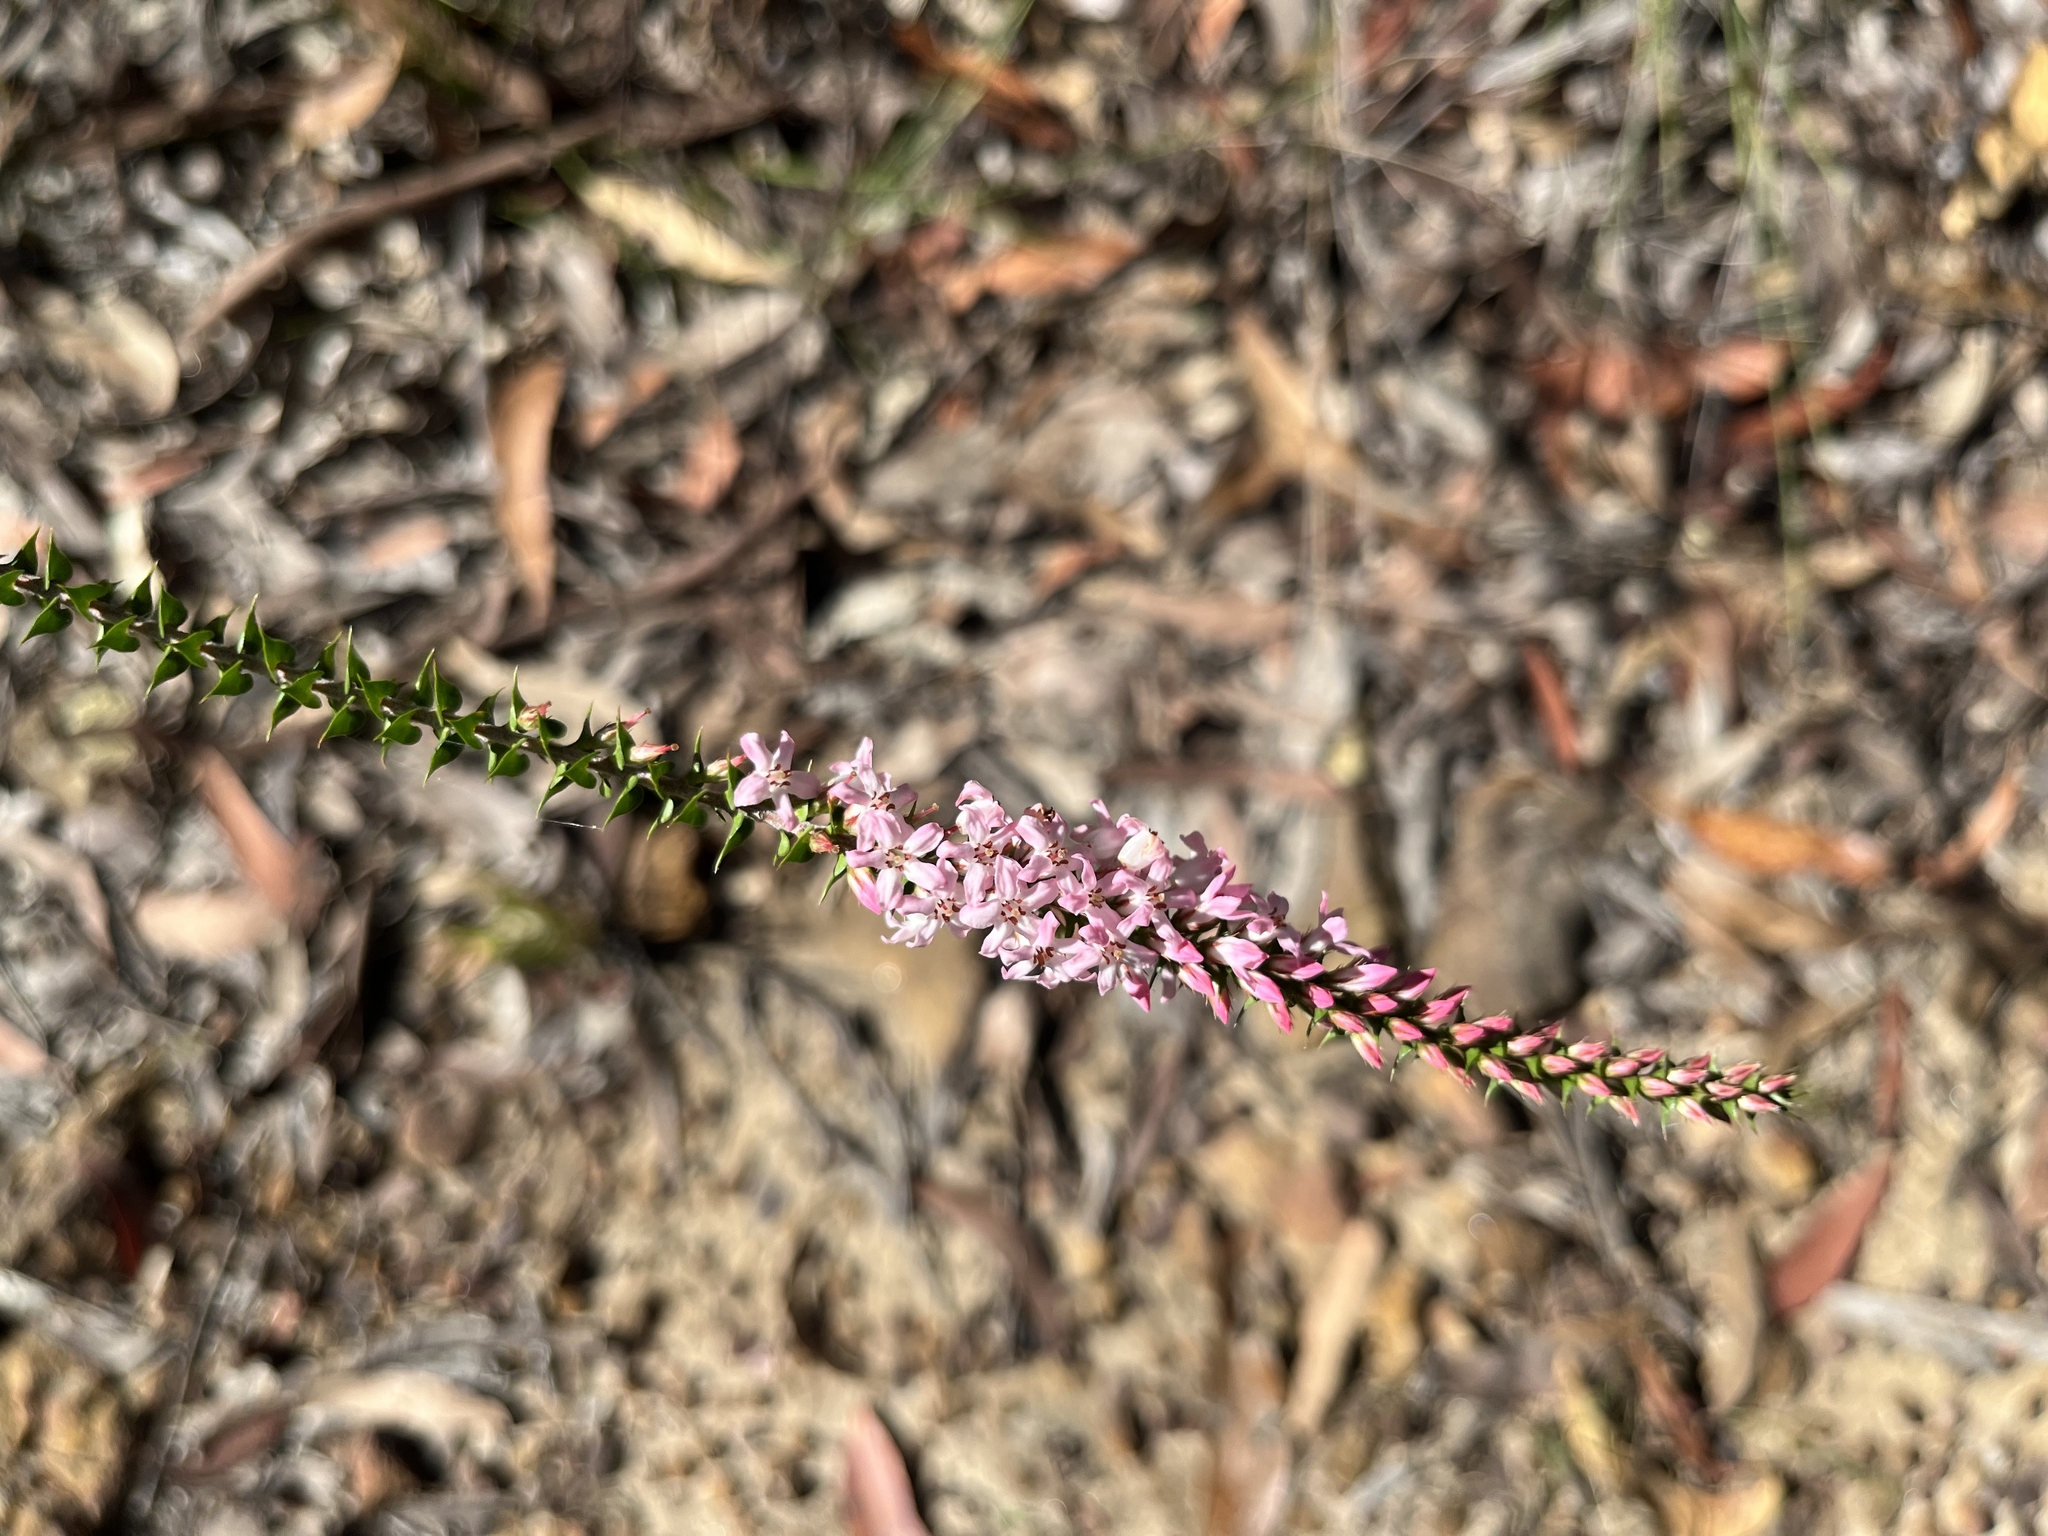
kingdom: Plantae
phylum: Tracheophyta
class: Magnoliopsida
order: Ericales
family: Ericaceae
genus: Epacris
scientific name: Epacris pulchella
